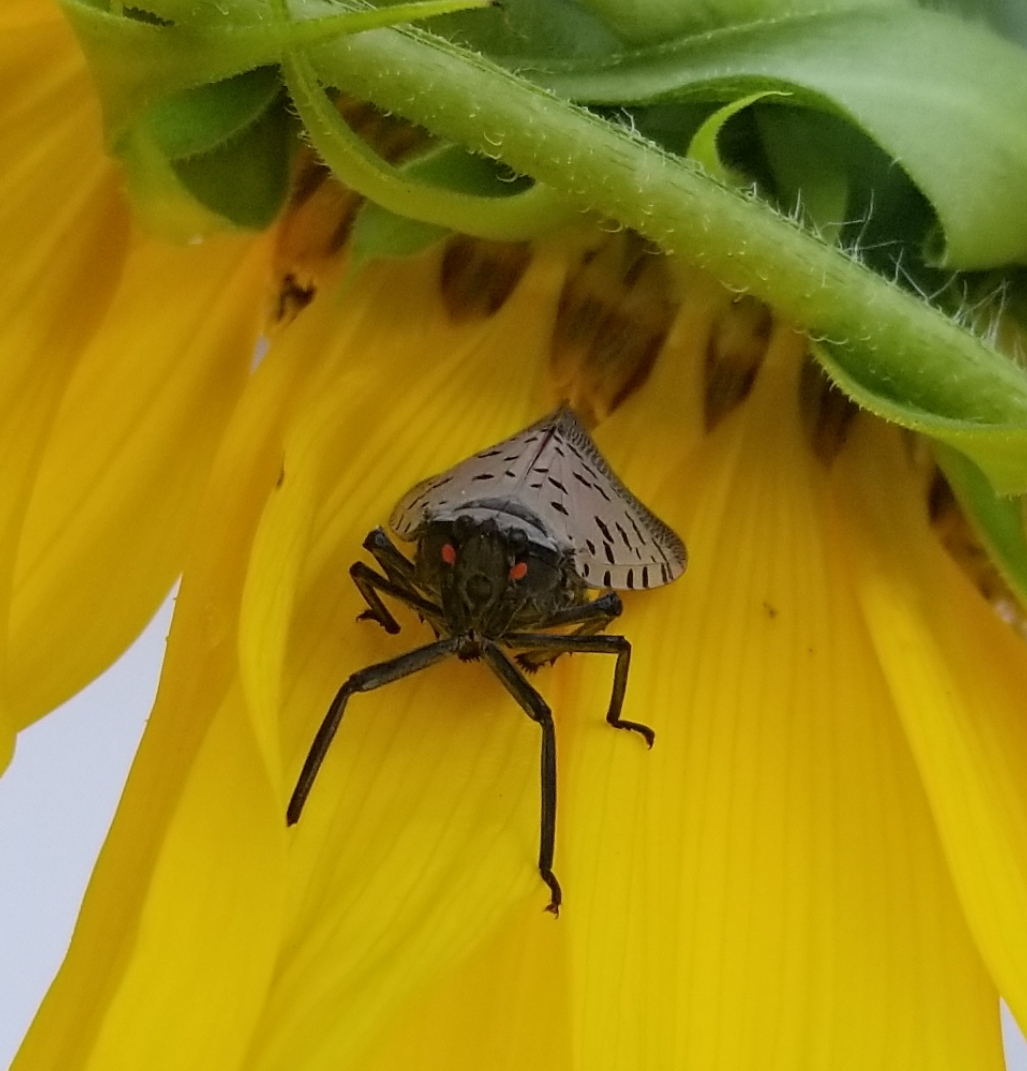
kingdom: Animalia
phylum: Arthropoda
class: Insecta
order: Hemiptera
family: Fulgoridae
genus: Lycorma
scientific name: Lycorma delicatula
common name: Spotted lanternfly
